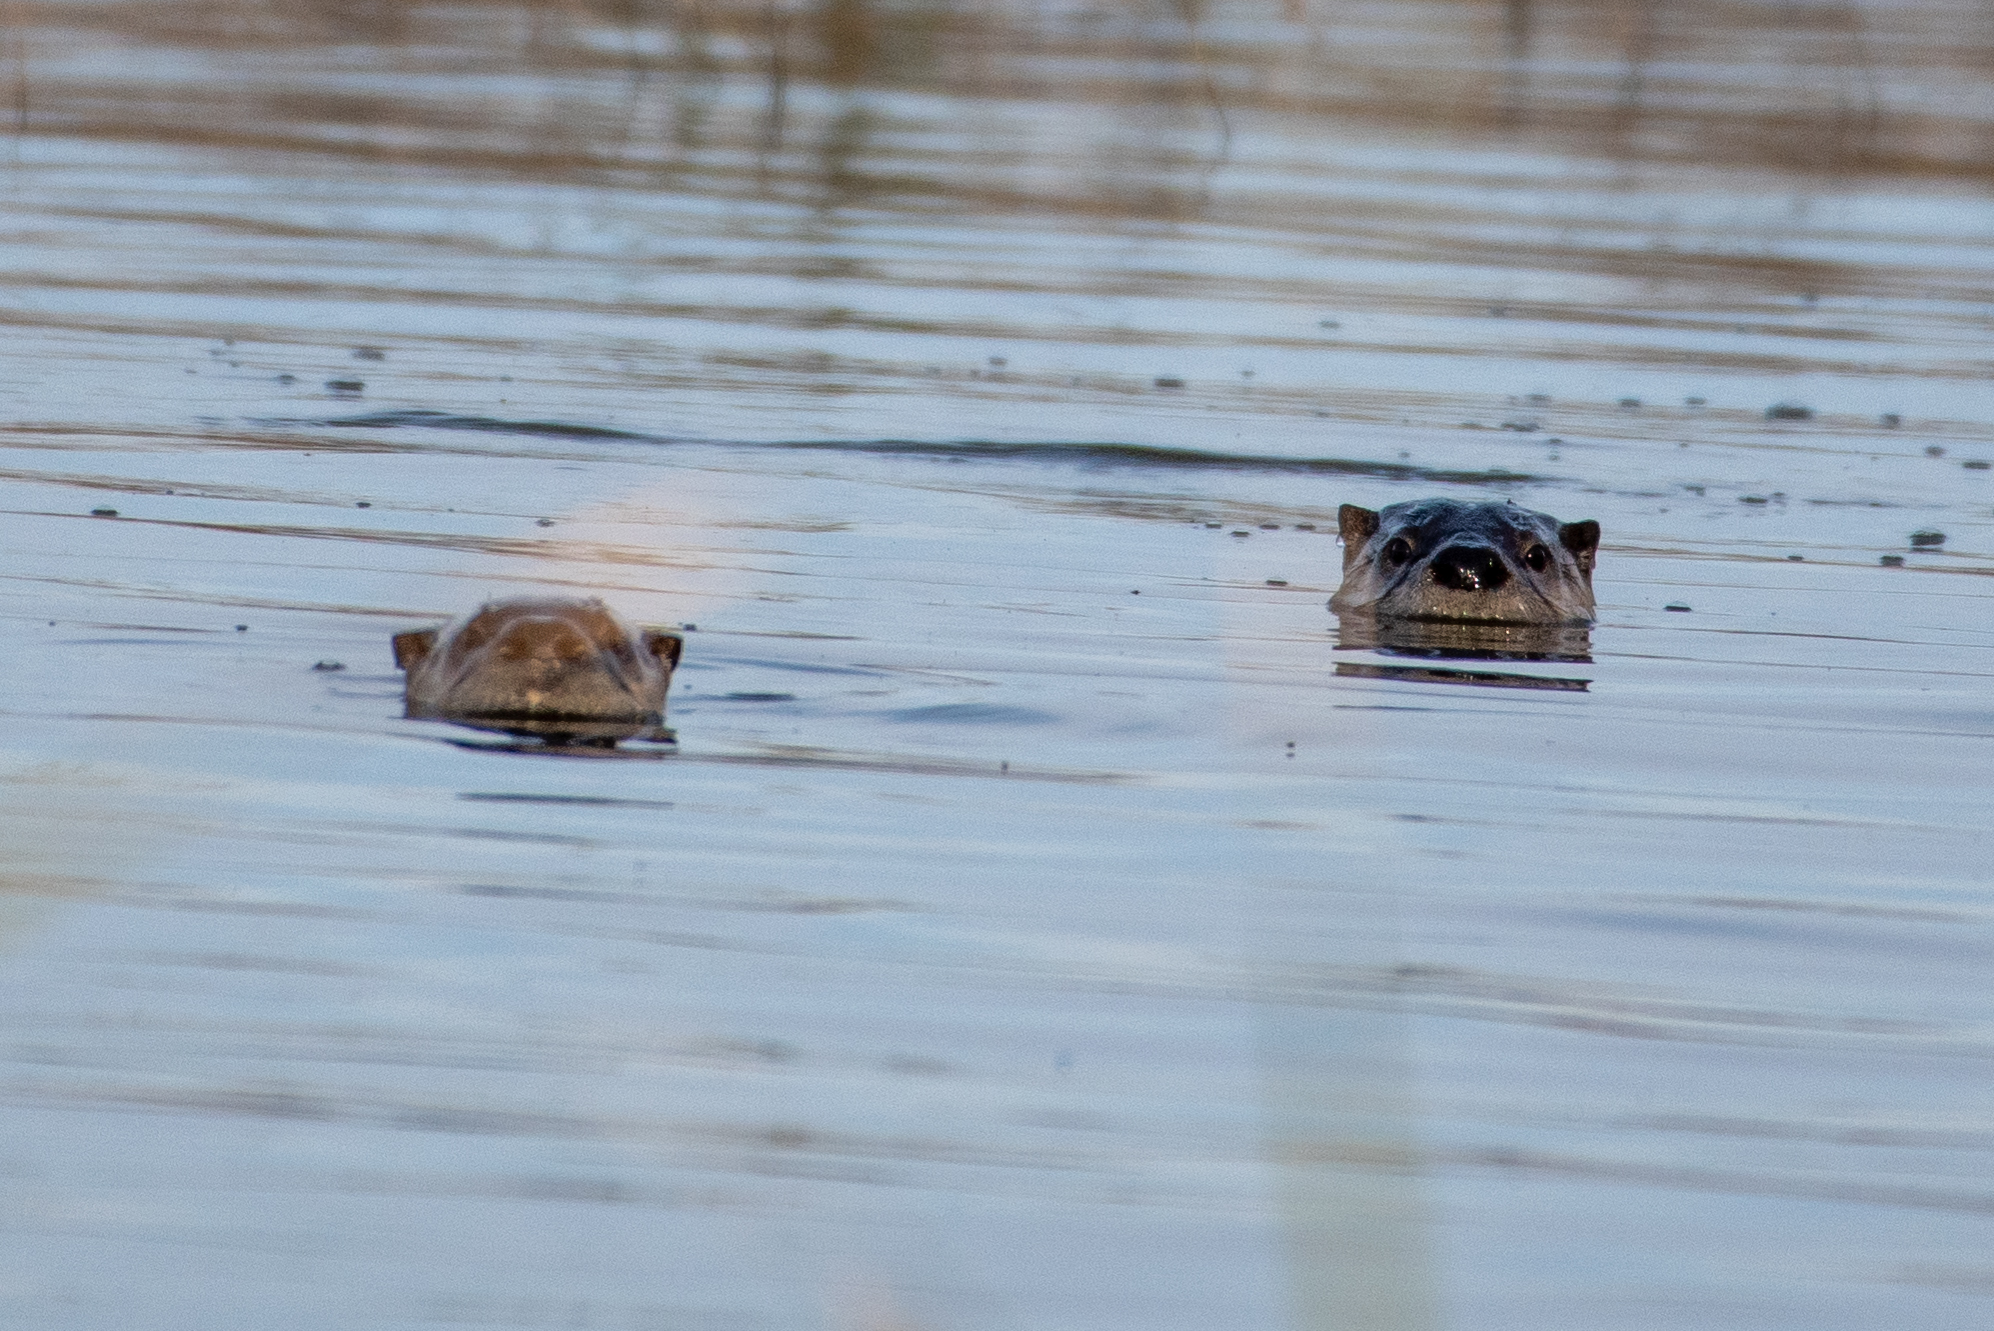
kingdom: Animalia
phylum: Chordata
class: Mammalia
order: Carnivora
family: Mustelidae
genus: Lontra
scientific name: Lontra canadensis
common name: North american river otter
